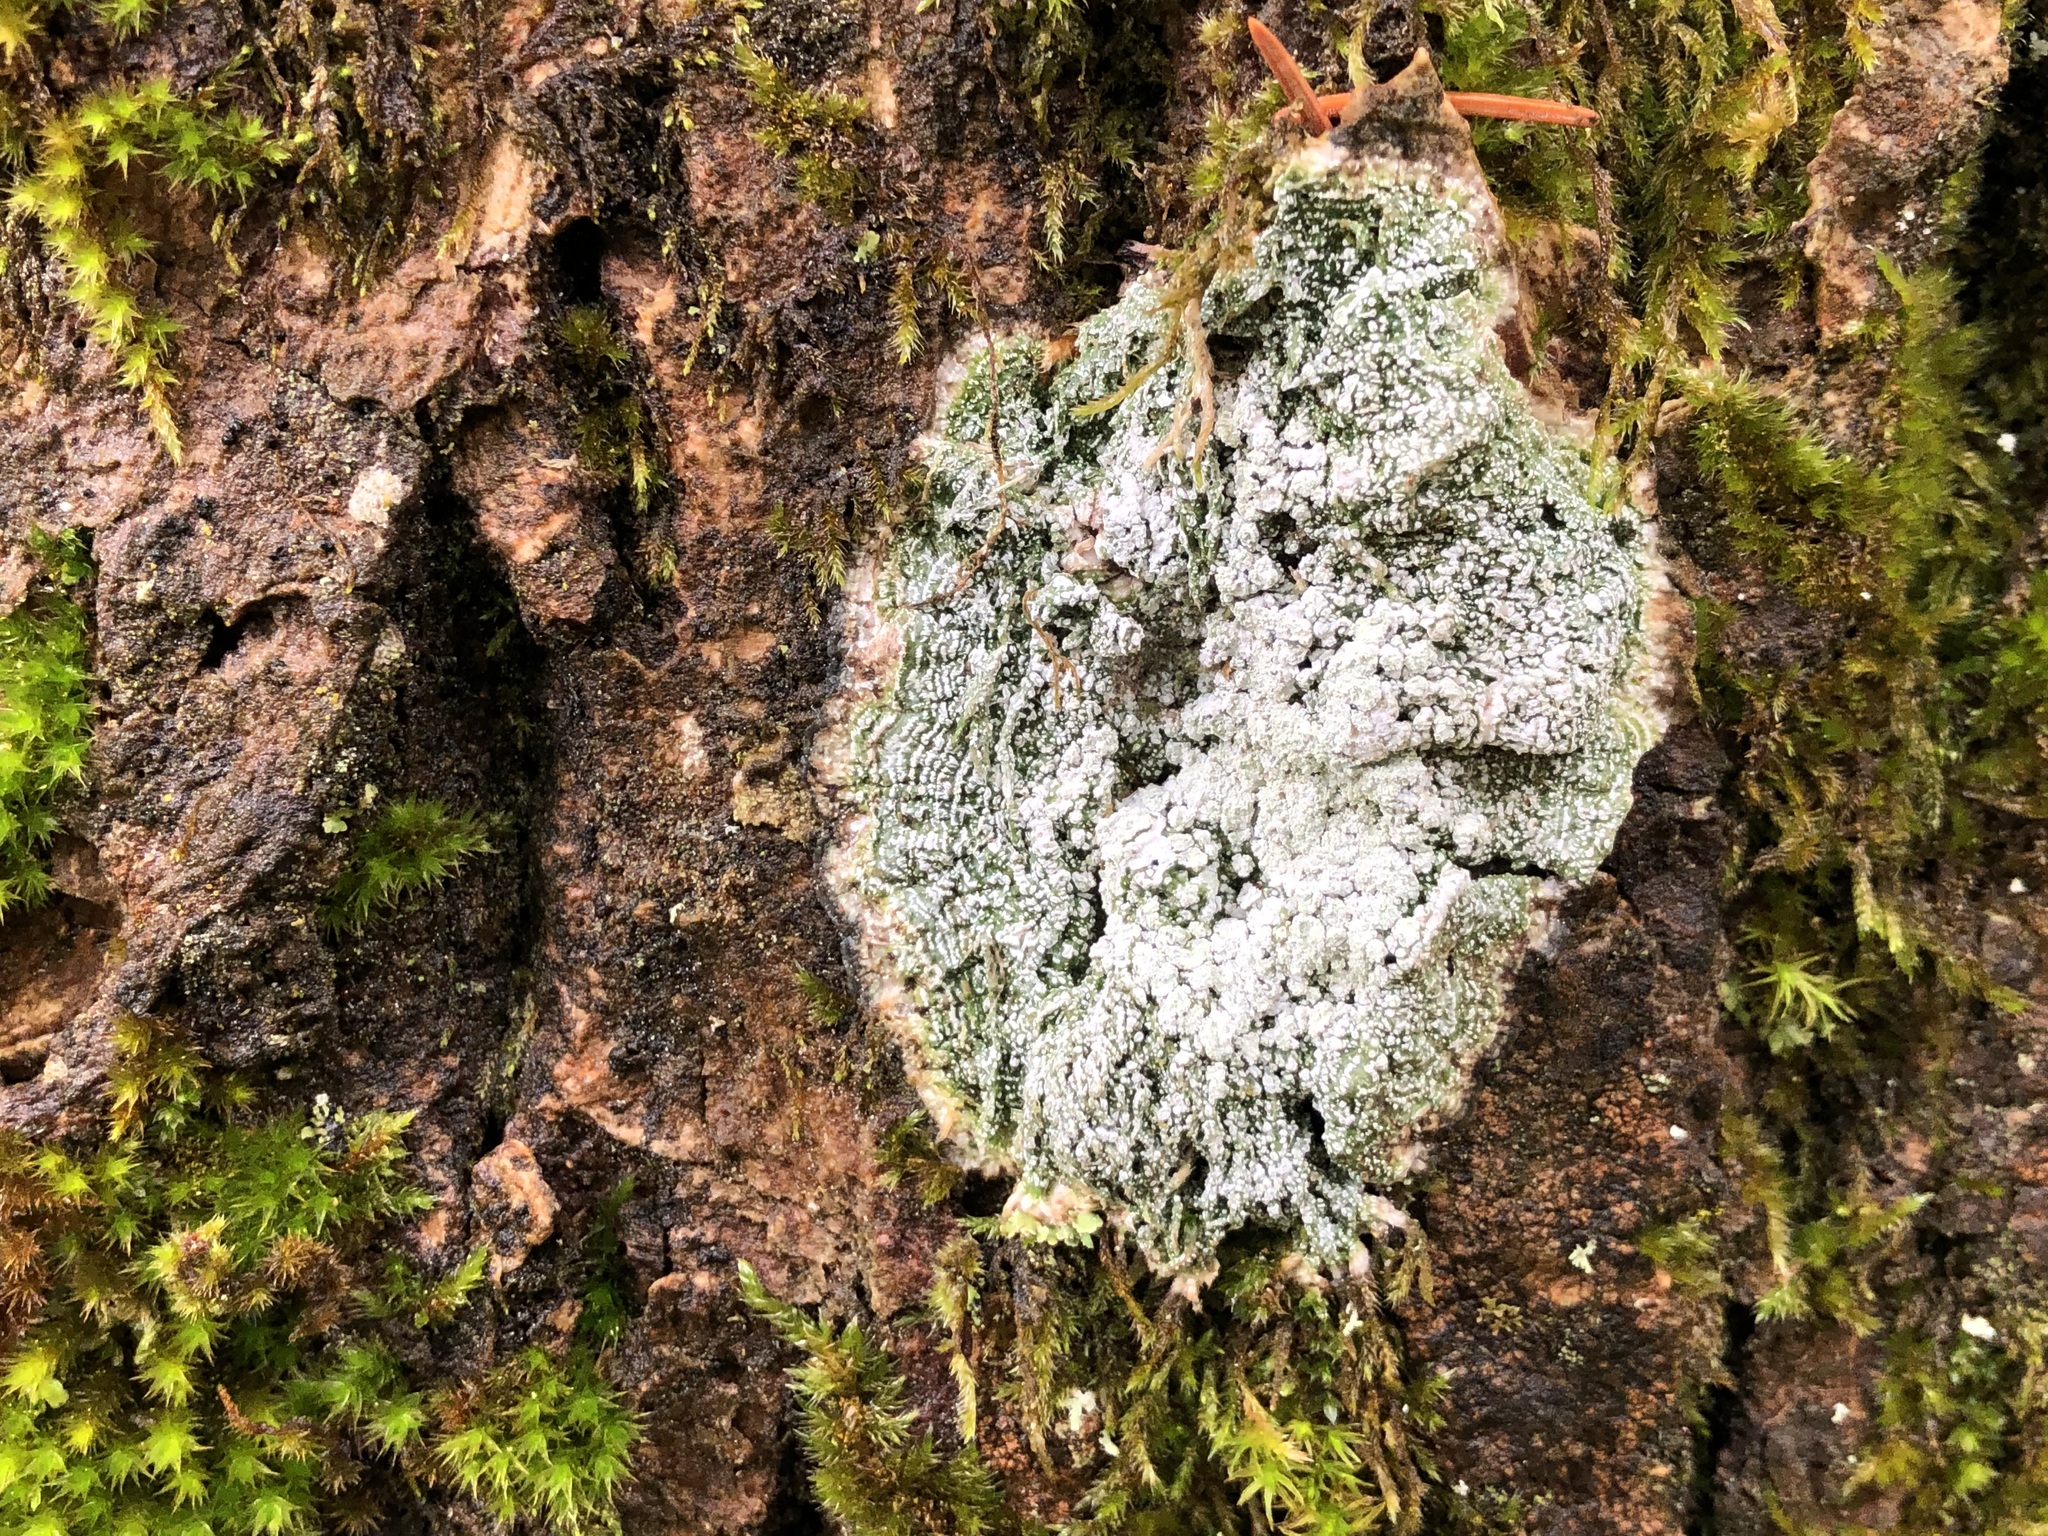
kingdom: Fungi
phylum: Ascomycota
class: Lecanoromycetes
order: Pertusariales
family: Pertusariaceae
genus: Lepra
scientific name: Lepra amara
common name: Bitter wart lichen
